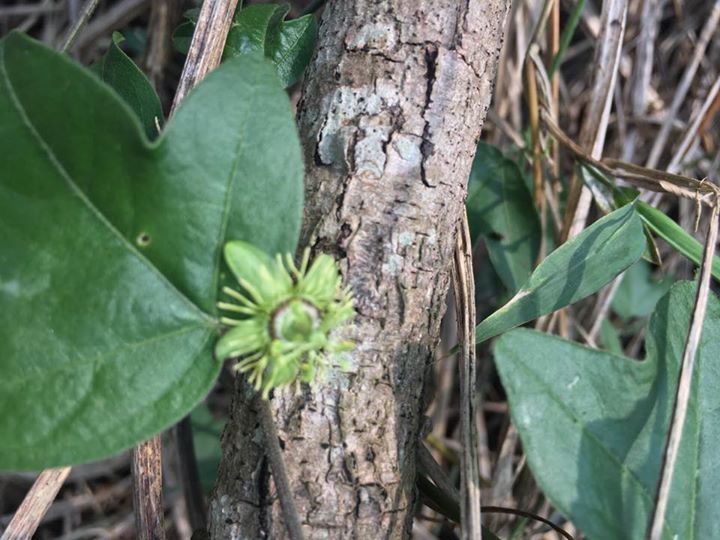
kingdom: Plantae
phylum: Tracheophyta
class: Magnoliopsida
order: Malpighiales
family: Passifloraceae
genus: Passiflora
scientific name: Passiflora suberosa
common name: Wild passionfruit
